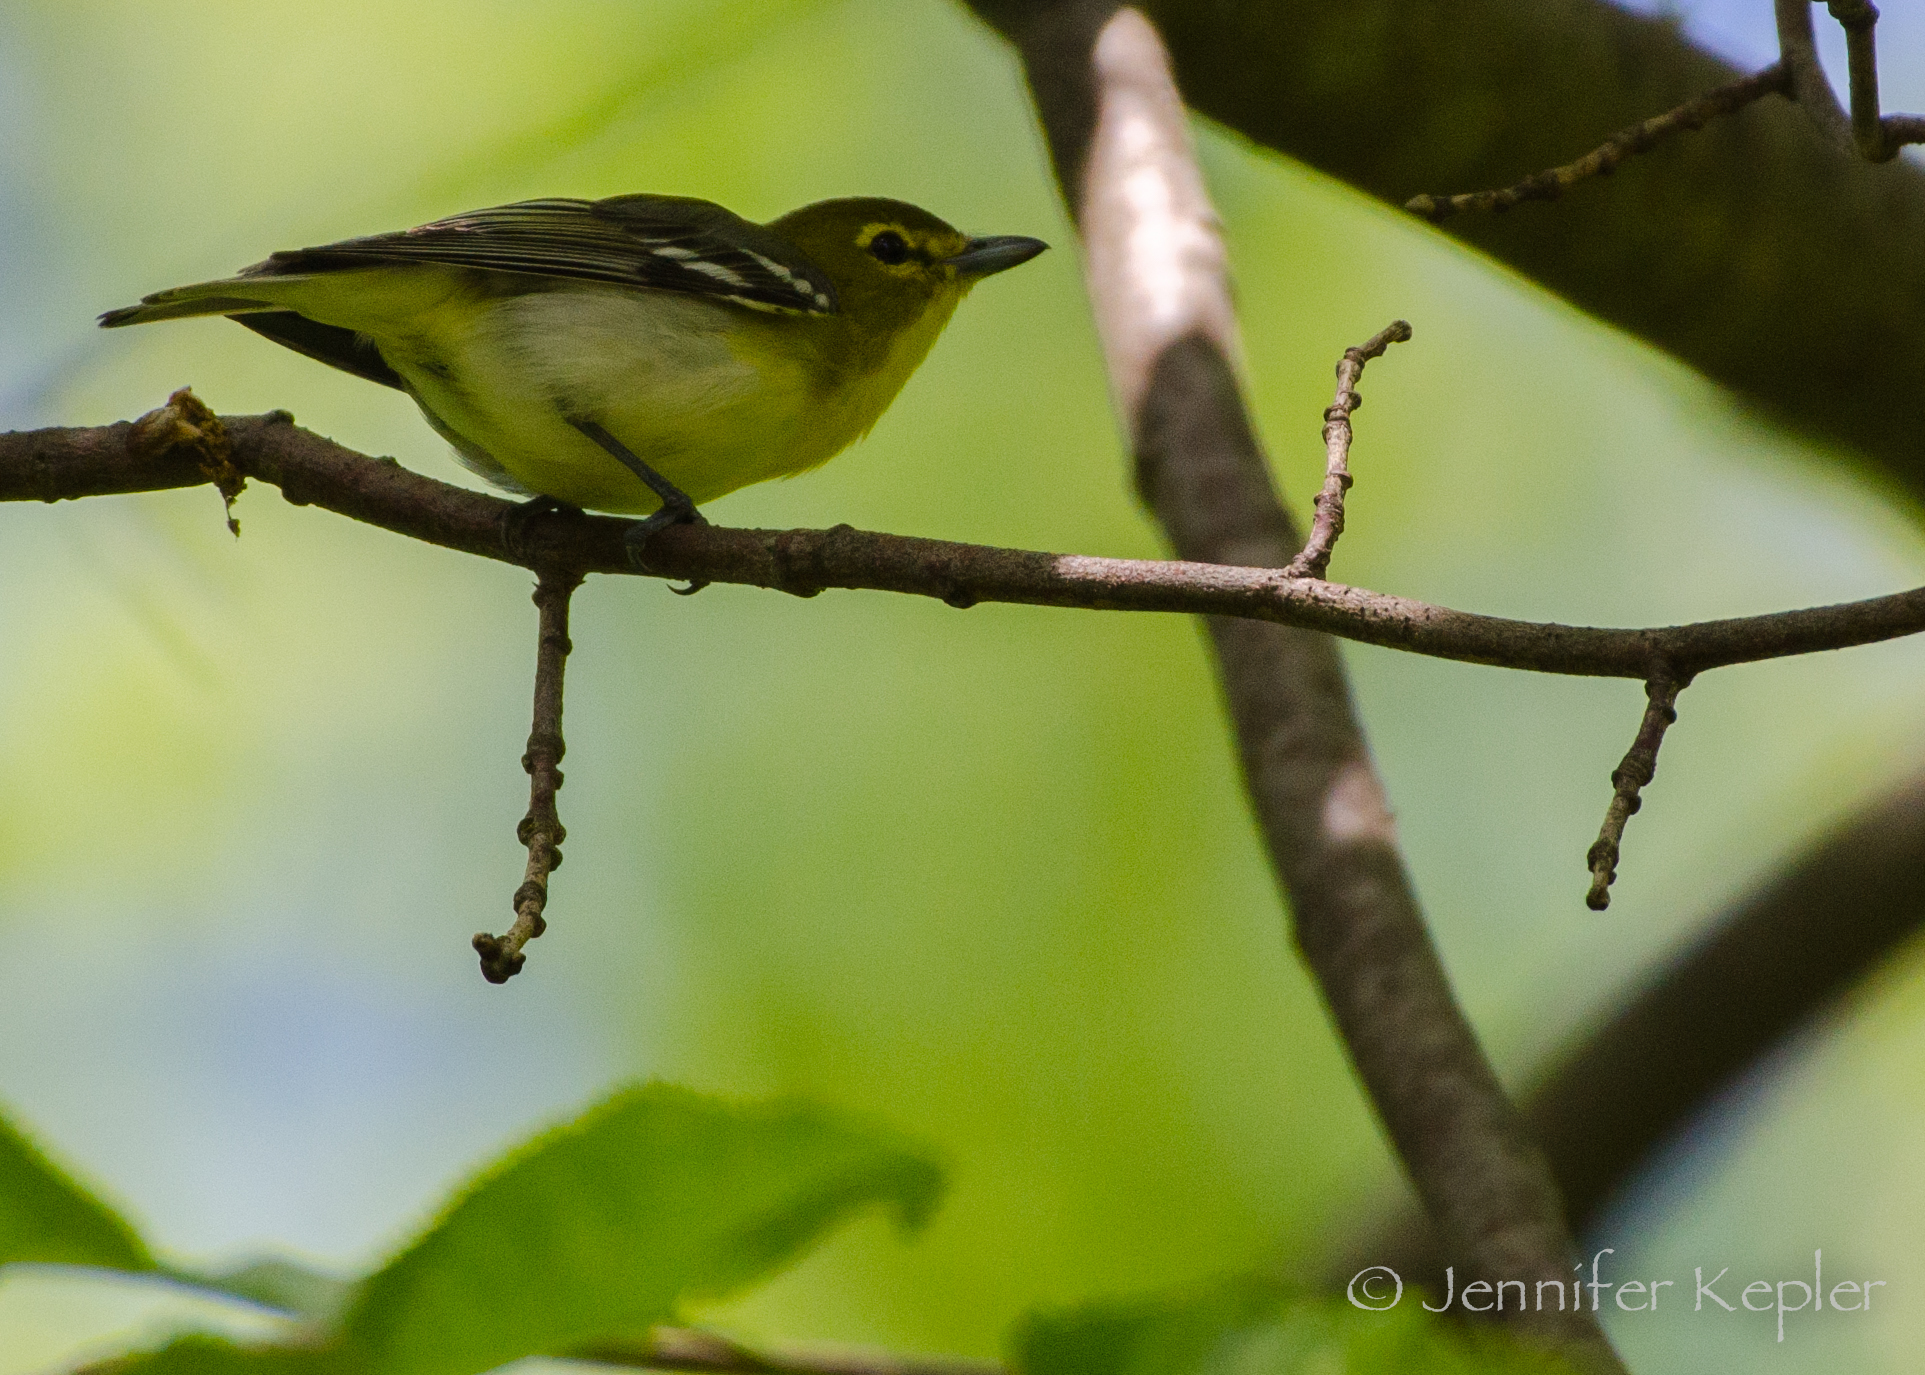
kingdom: Animalia
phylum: Chordata
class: Aves
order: Passeriformes
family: Vireonidae
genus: Vireo
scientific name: Vireo flavifrons
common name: Yellow-throated vireo
